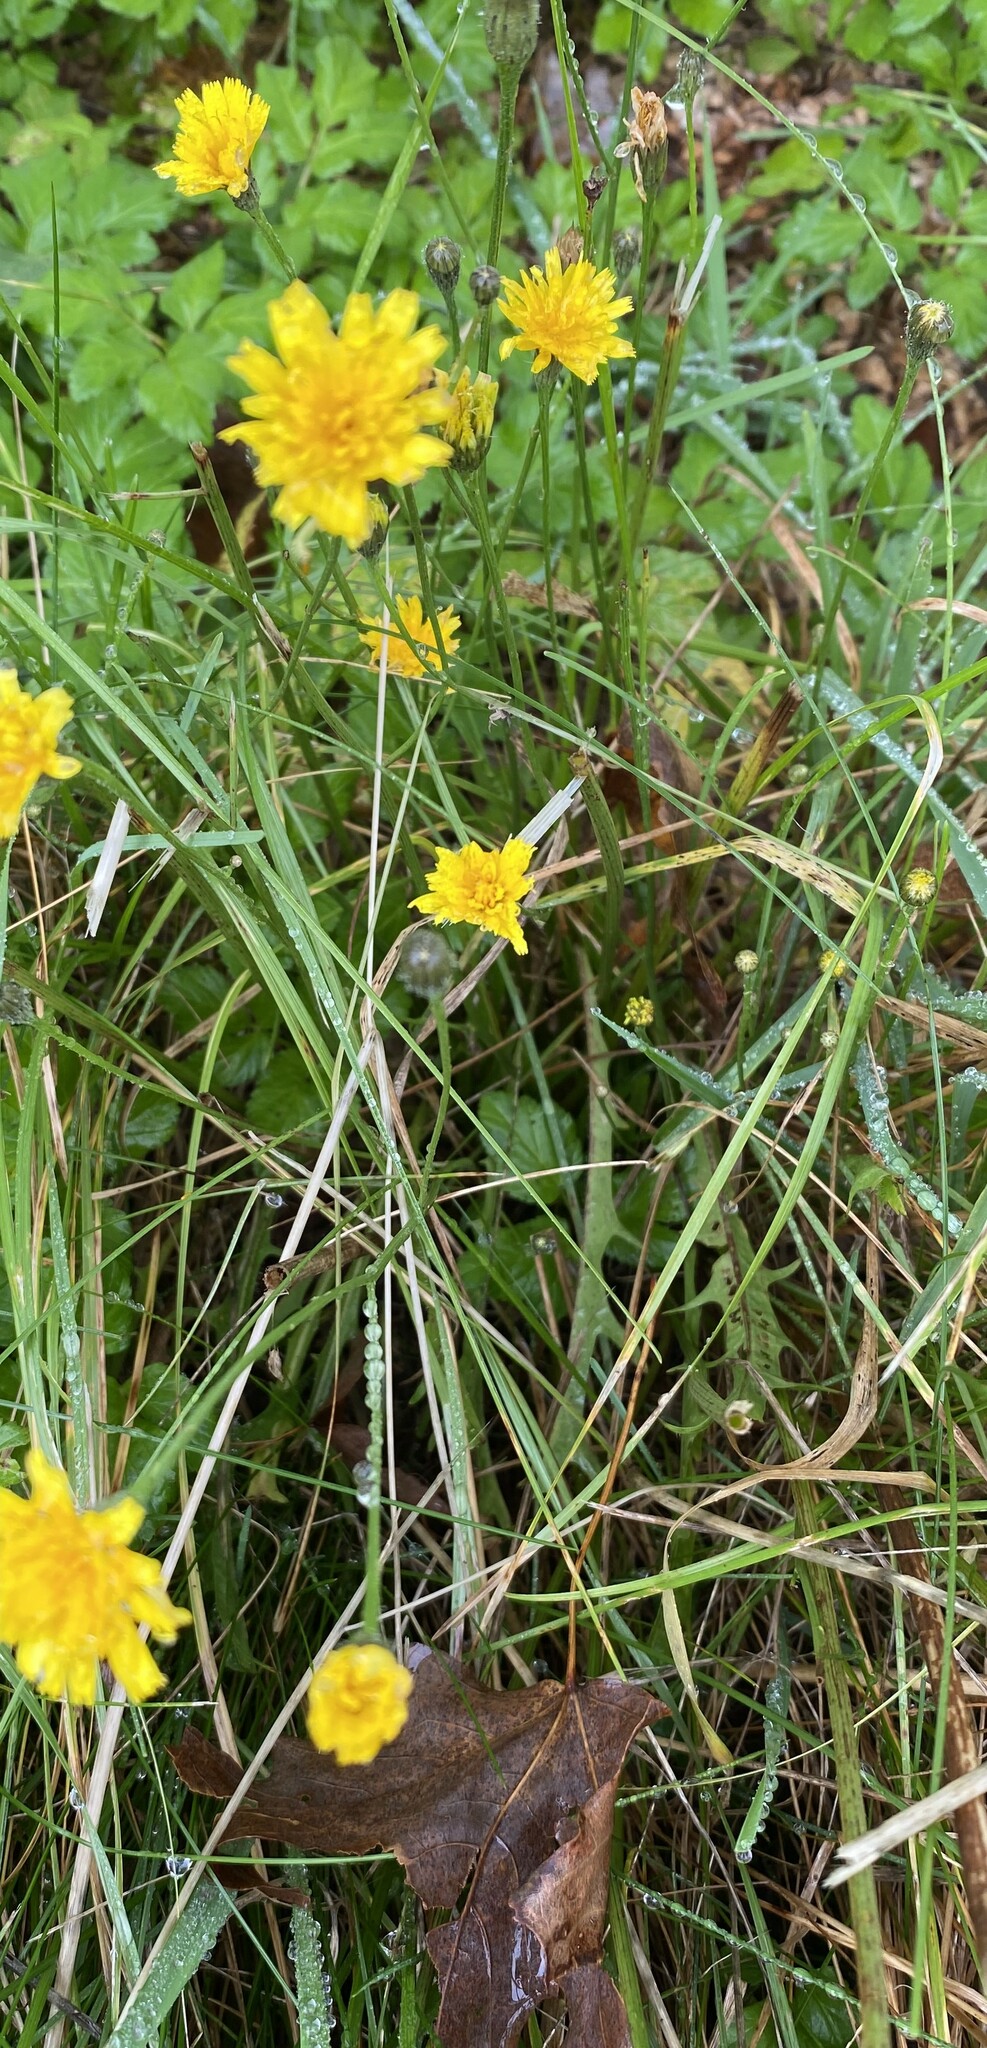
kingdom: Plantae
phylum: Tracheophyta
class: Magnoliopsida
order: Asterales
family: Asteraceae
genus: Scorzoneroides
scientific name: Scorzoneroides autumnalis
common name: Autumn hawkbit
